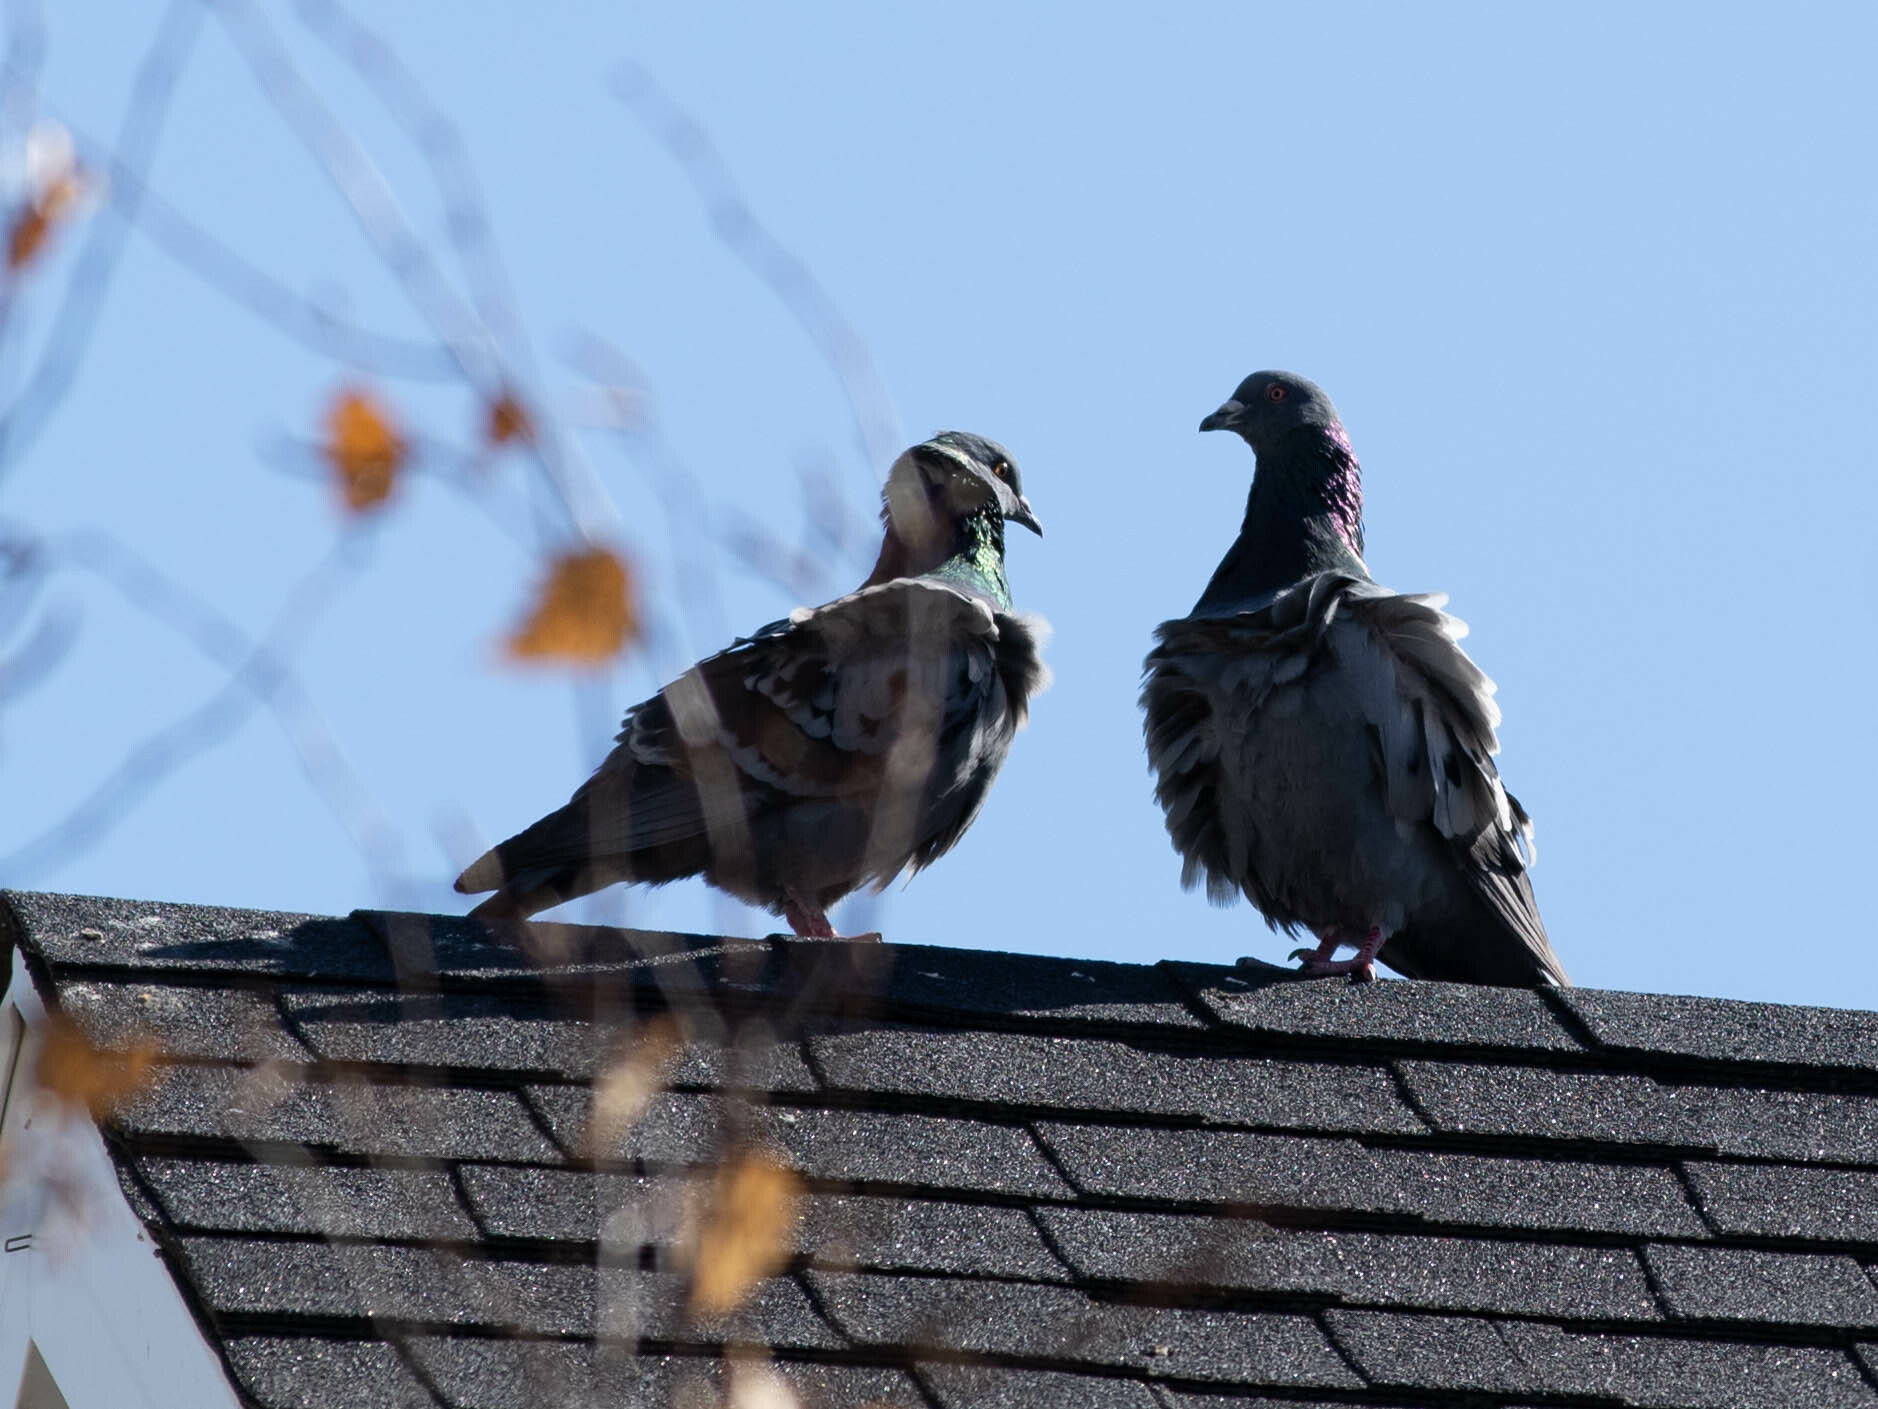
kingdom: Animalia
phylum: Chordata
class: Aves
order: Columbiformes
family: Columbidae
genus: Columba
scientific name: Columba livia
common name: Rock pigeon
